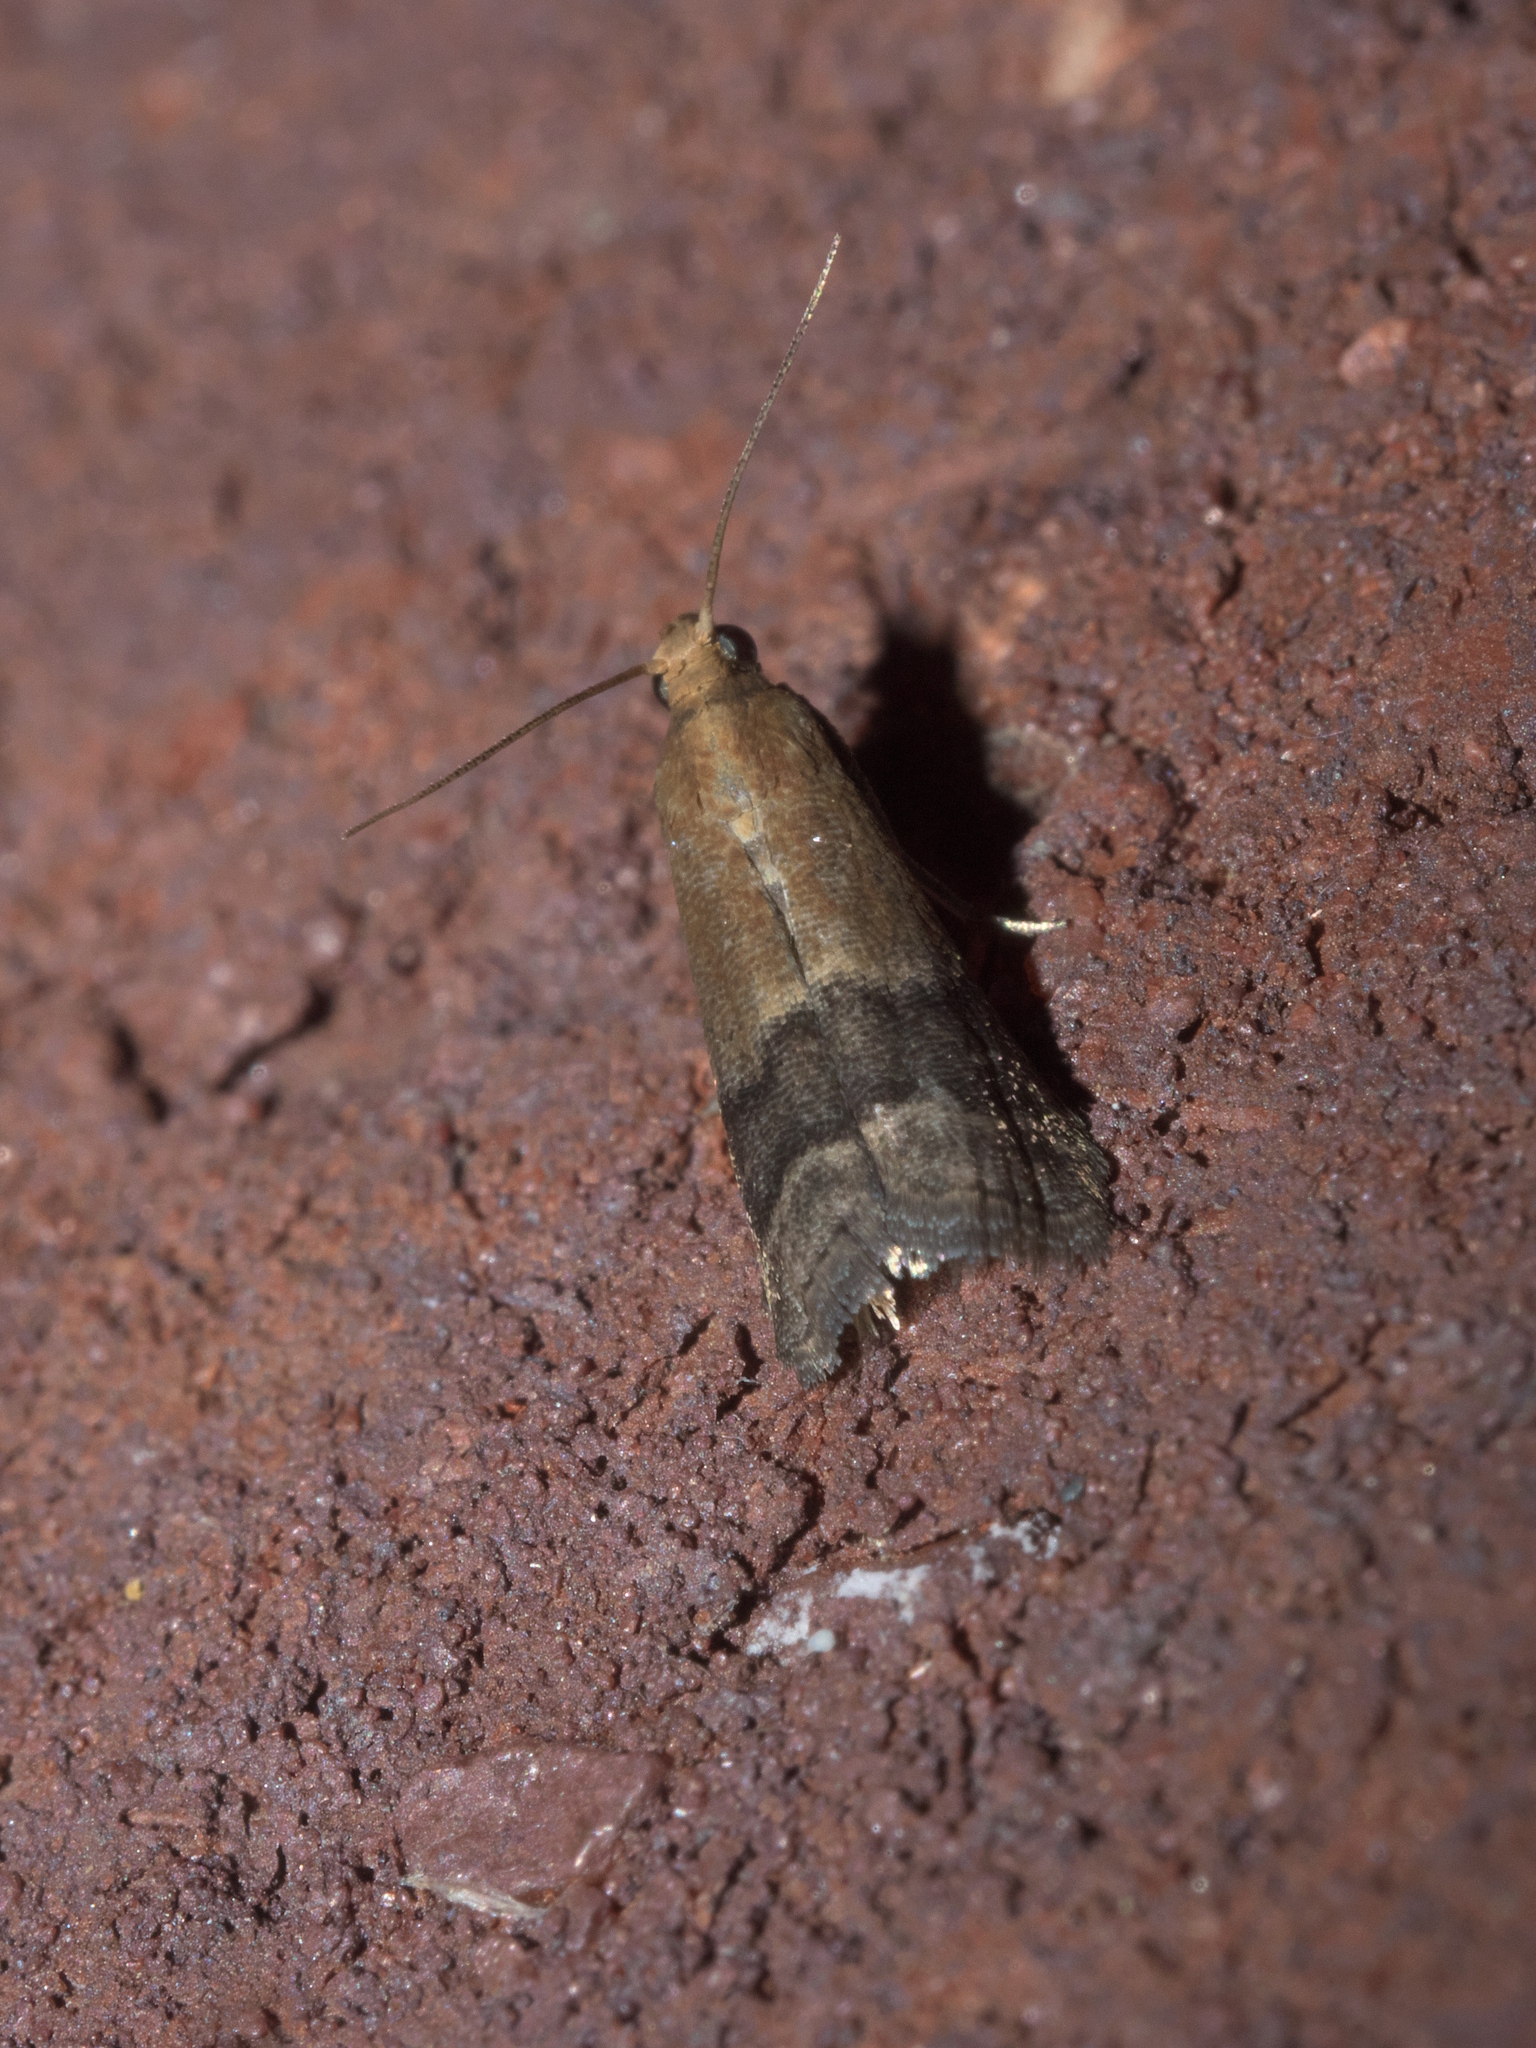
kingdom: Animalia
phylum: Arthropoda
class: Insecta
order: Lepidoptera
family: Pyralidae
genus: Eulogia
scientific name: Eulogia ochrifrontella
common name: Broad-banded eulogia moth
